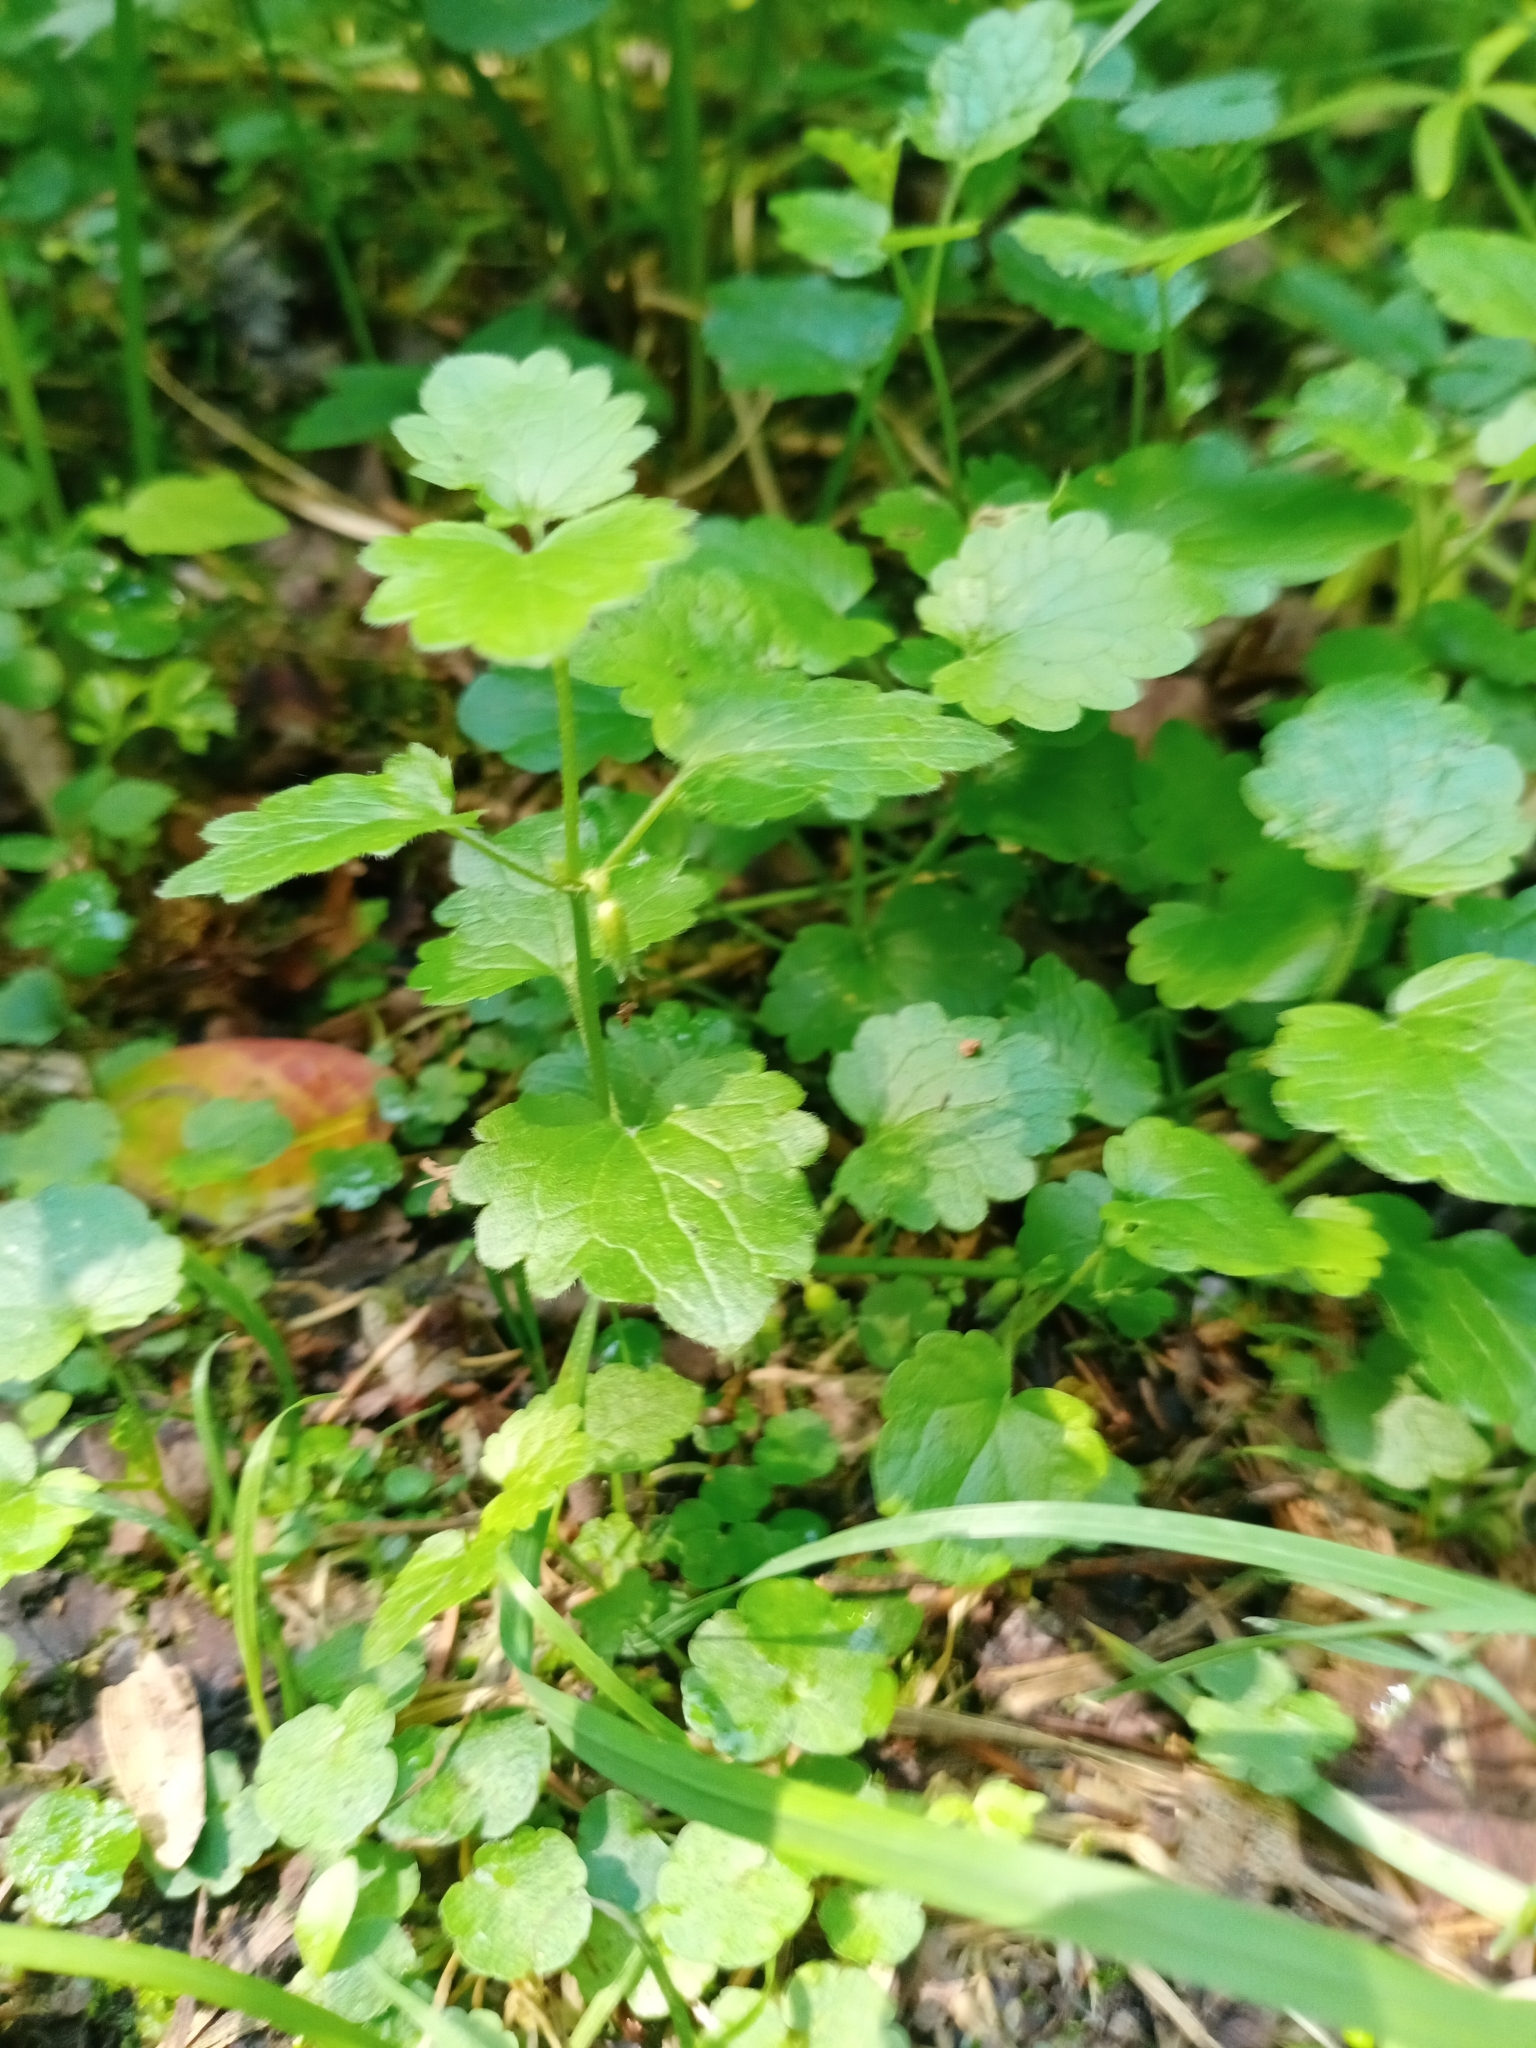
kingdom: Plantae
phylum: Tracheophyta
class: Magnoliopsida
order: Lamiales
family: Lamiaceae
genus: Glechoma
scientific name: Glechoma hederacea
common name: Ground ivy
